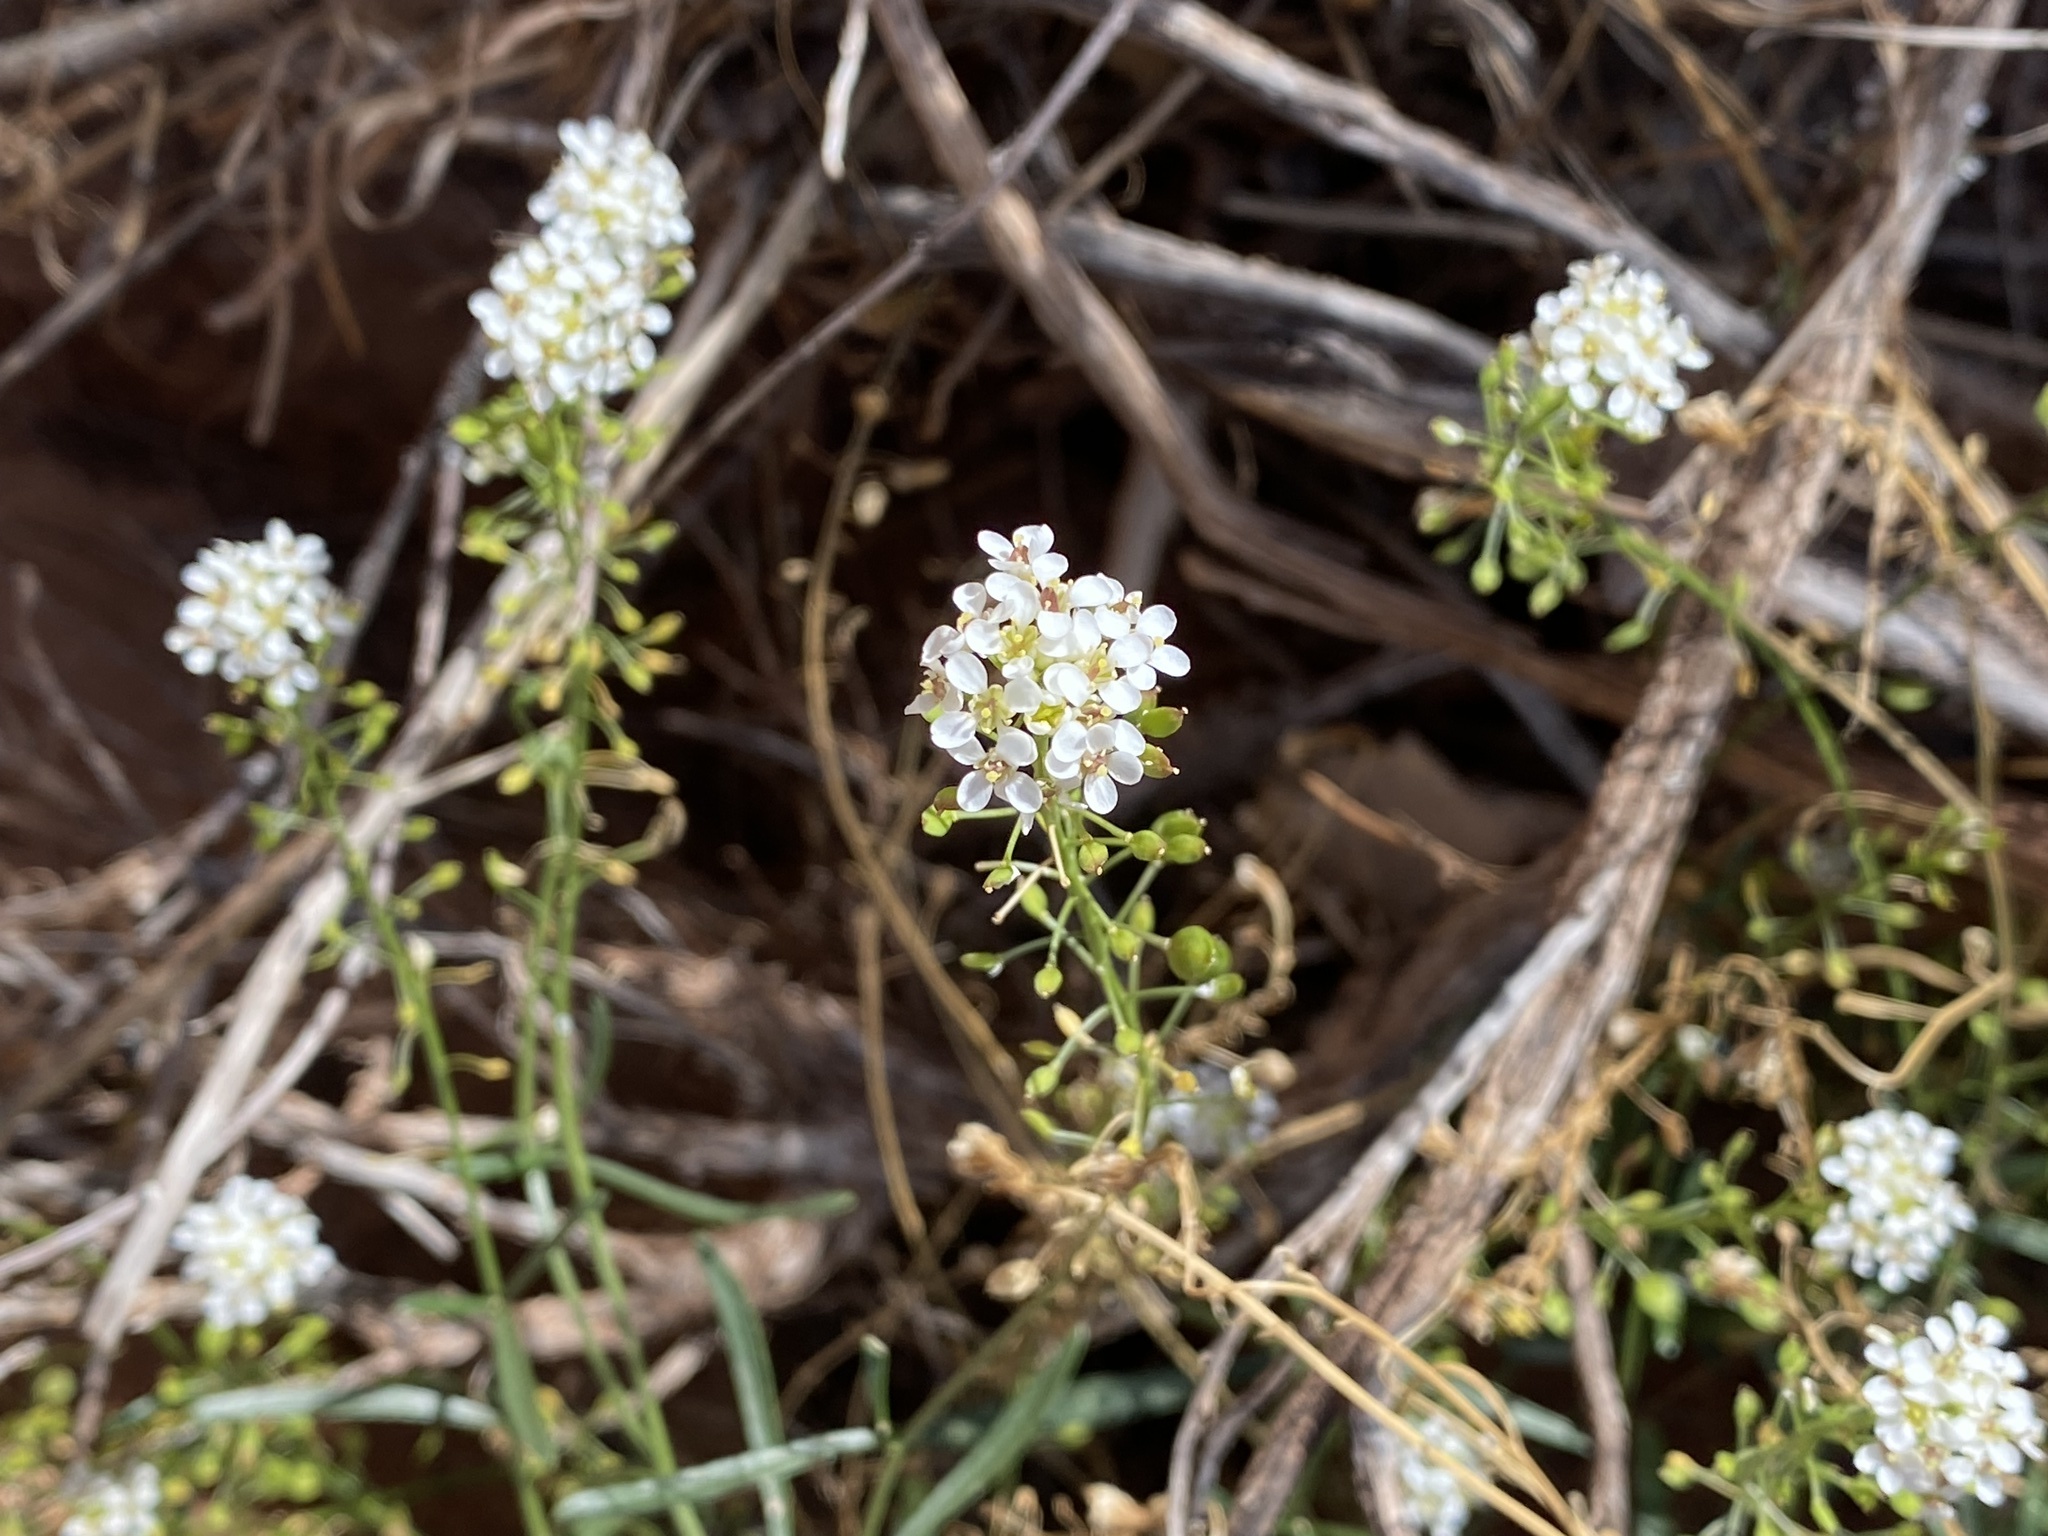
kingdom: Plantae
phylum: Tracheophyta
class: Magnoliopsida
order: Brassicales
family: Brassicaceae
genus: Lepidium
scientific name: Lepidium
